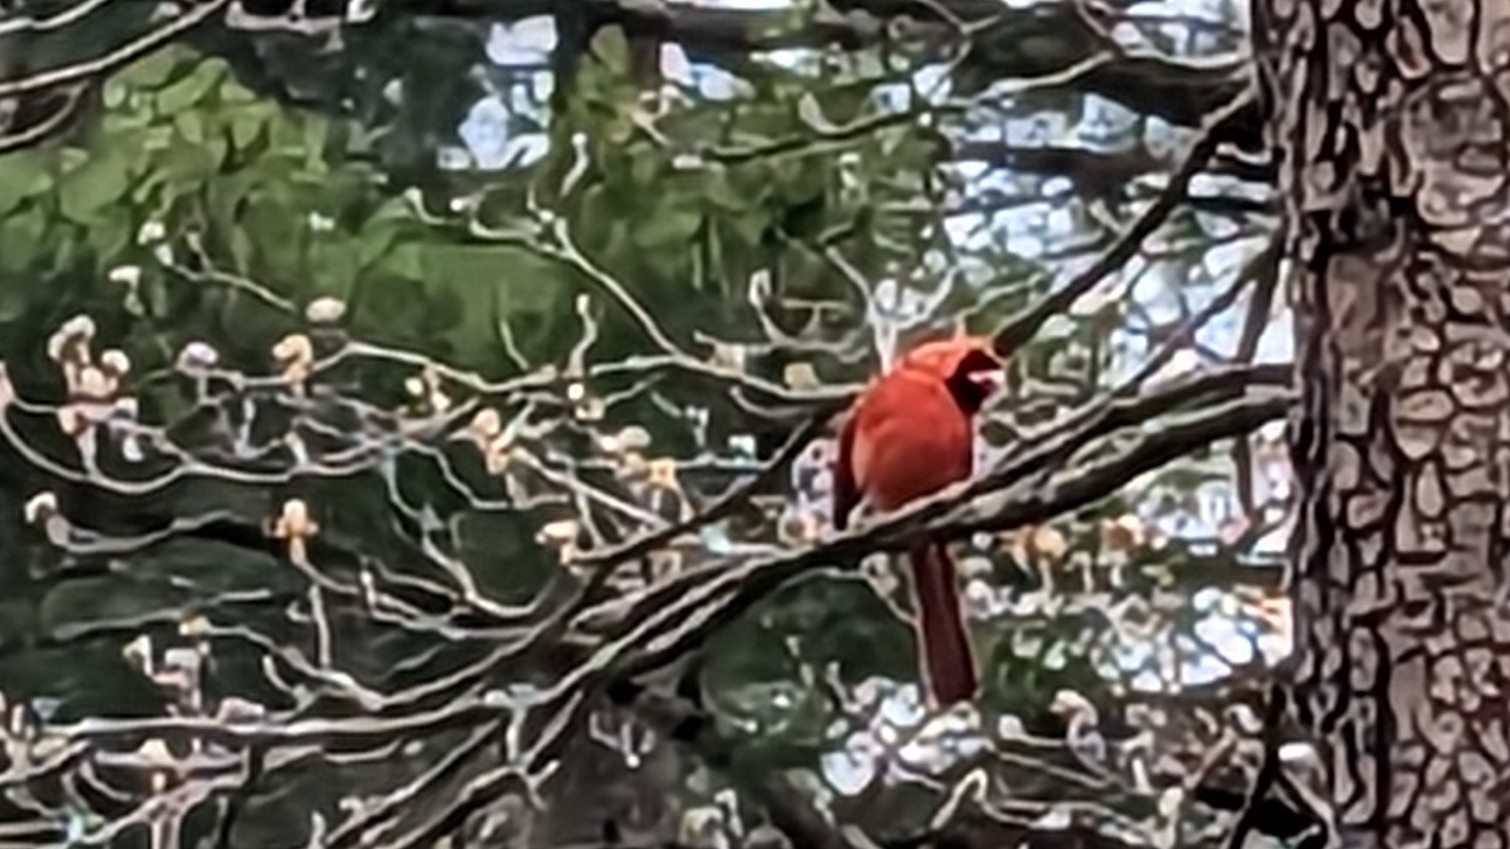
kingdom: Animalia
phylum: Chordata
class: Aves
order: Passeriformes
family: Cardinalidae
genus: Cardinalis
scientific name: Cardinalis cardinalis
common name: Northern cardinal
